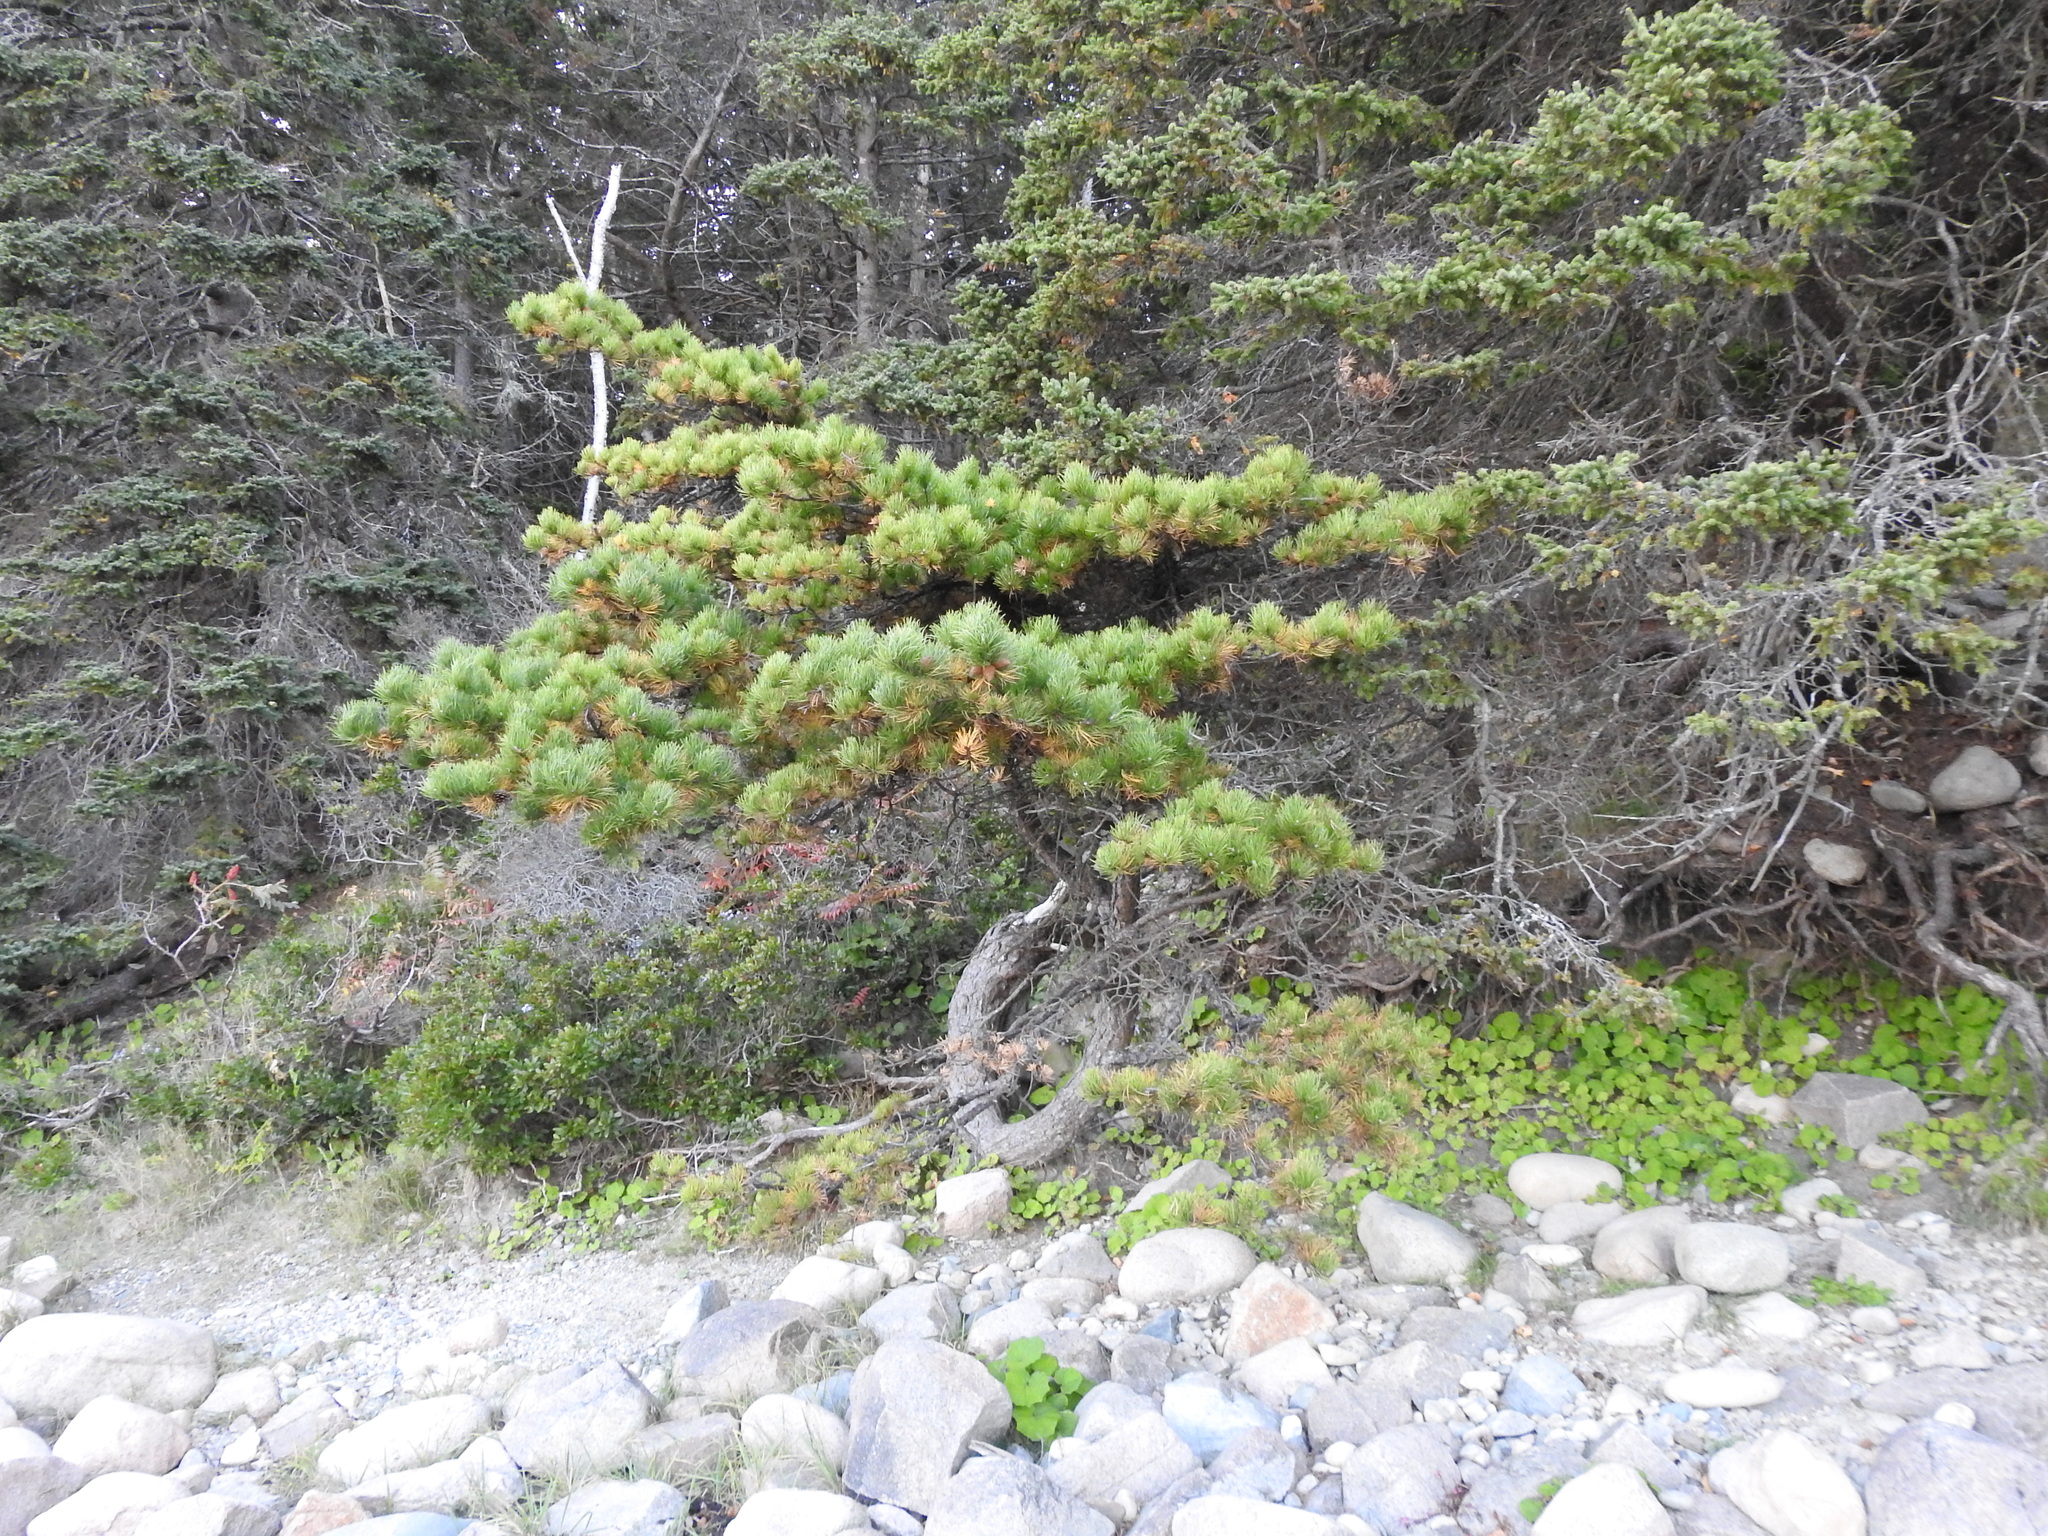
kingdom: Plantae
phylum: Tracheophyta
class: Pinopsida
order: Pinales
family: Pinaceae
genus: Pinus
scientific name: Pinus rigida
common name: Pitch pine
